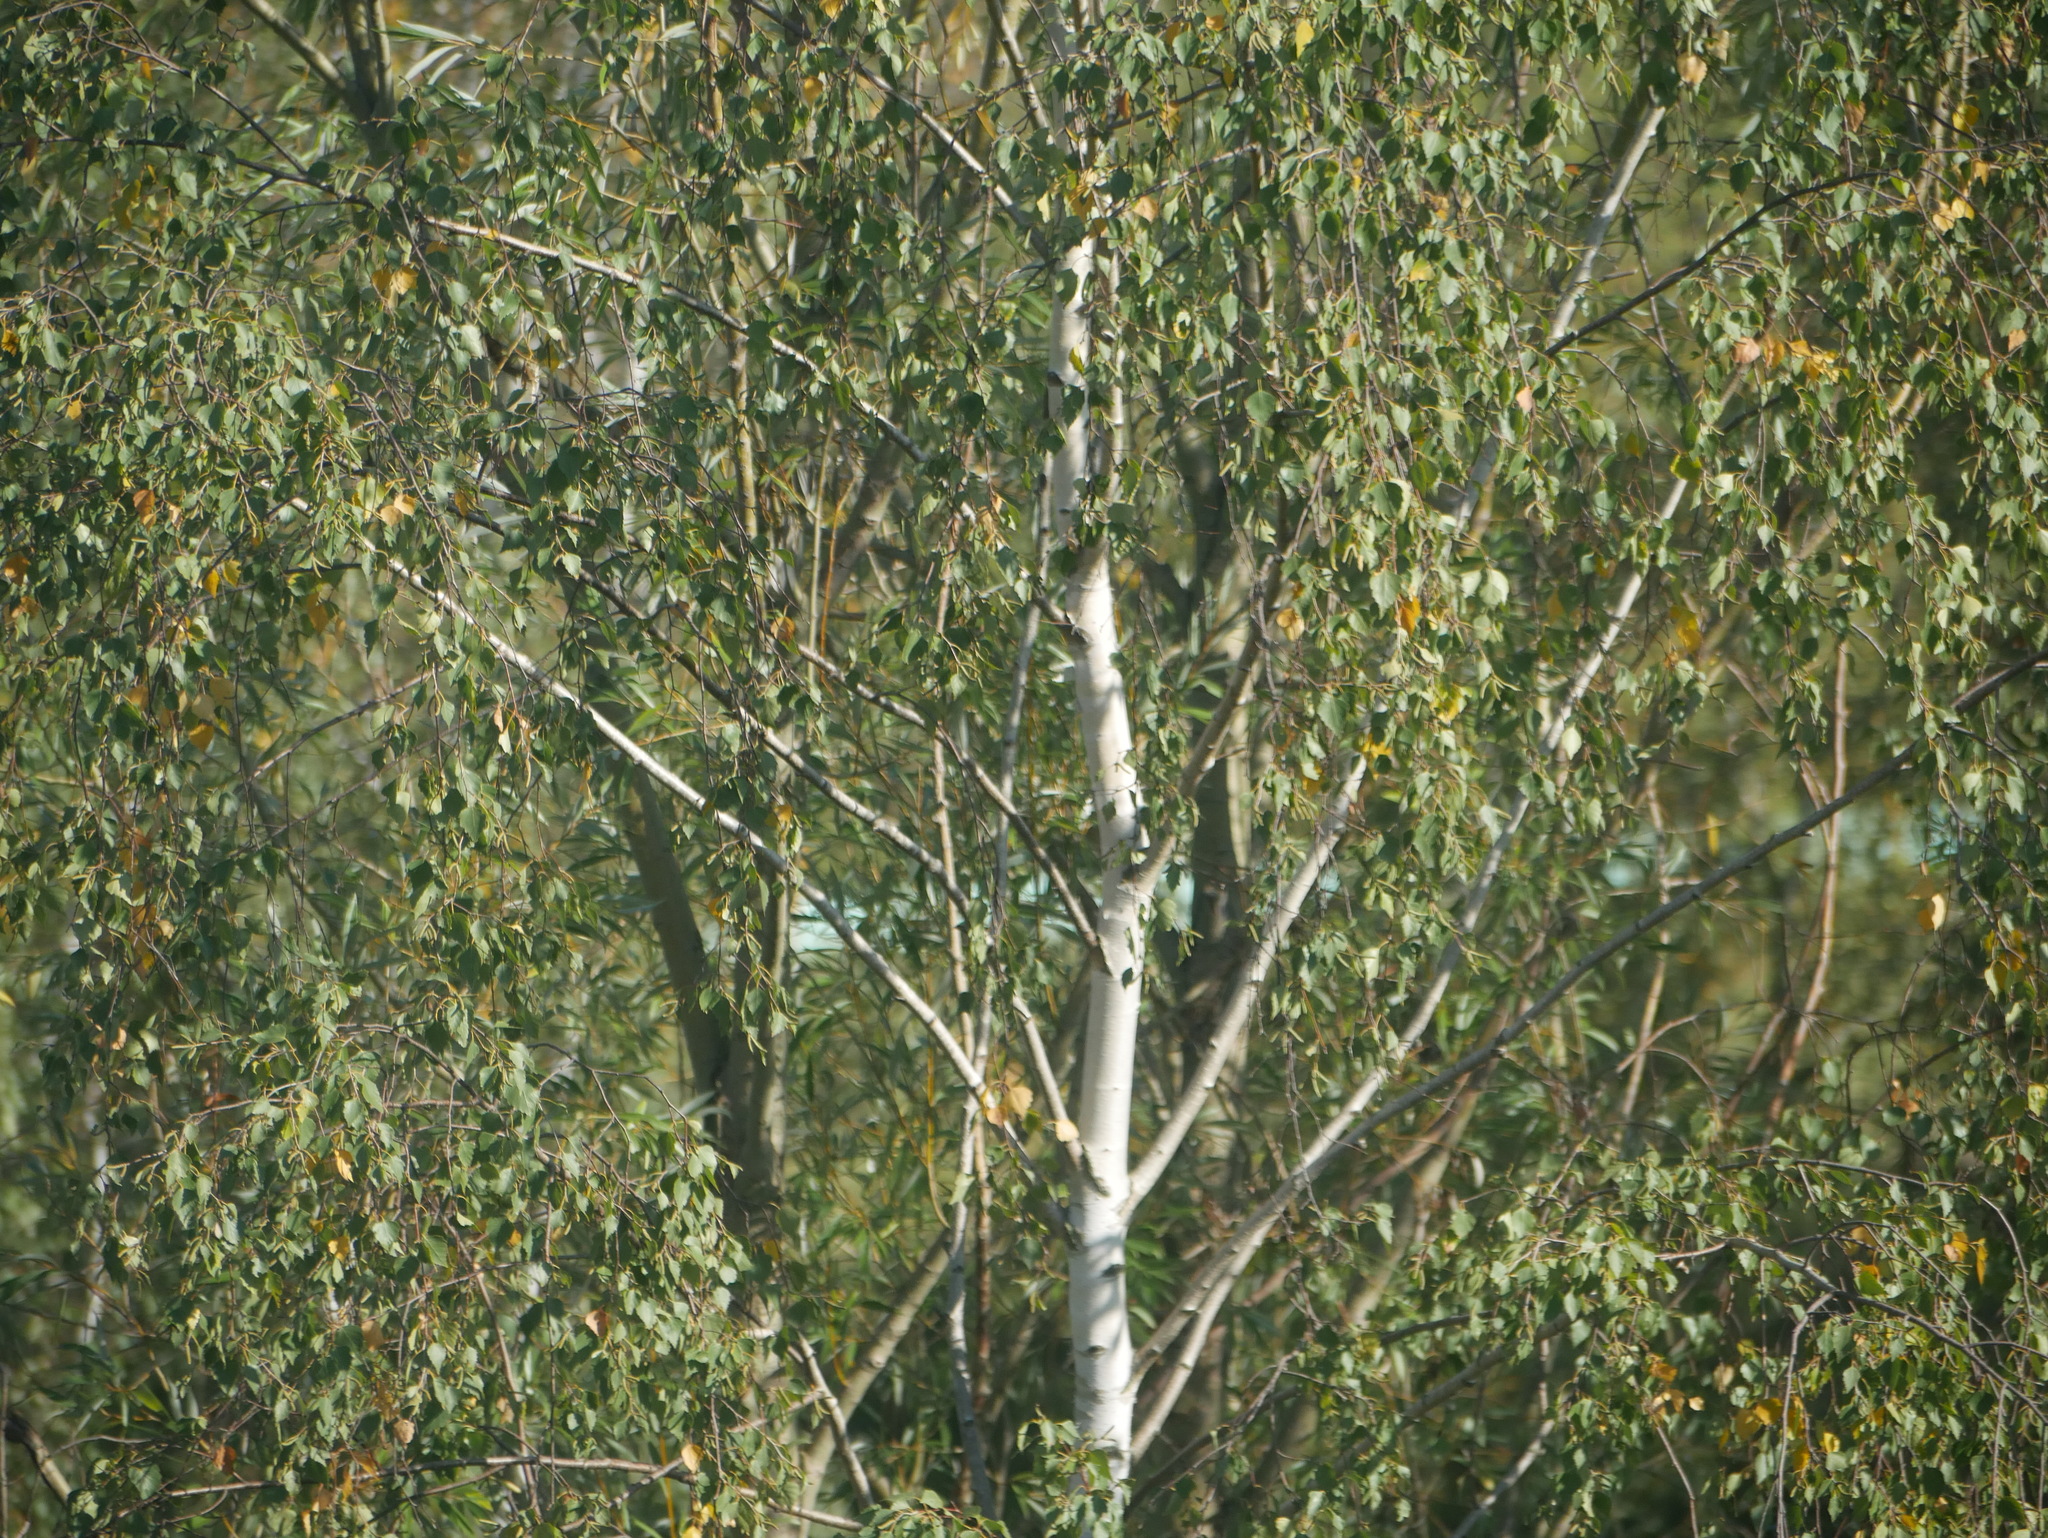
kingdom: Plantae
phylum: Tracheophyta
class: Magnoliopsida
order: Fagales
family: Betulaceae
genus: Betula
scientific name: Betula pendula
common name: Silver birch
